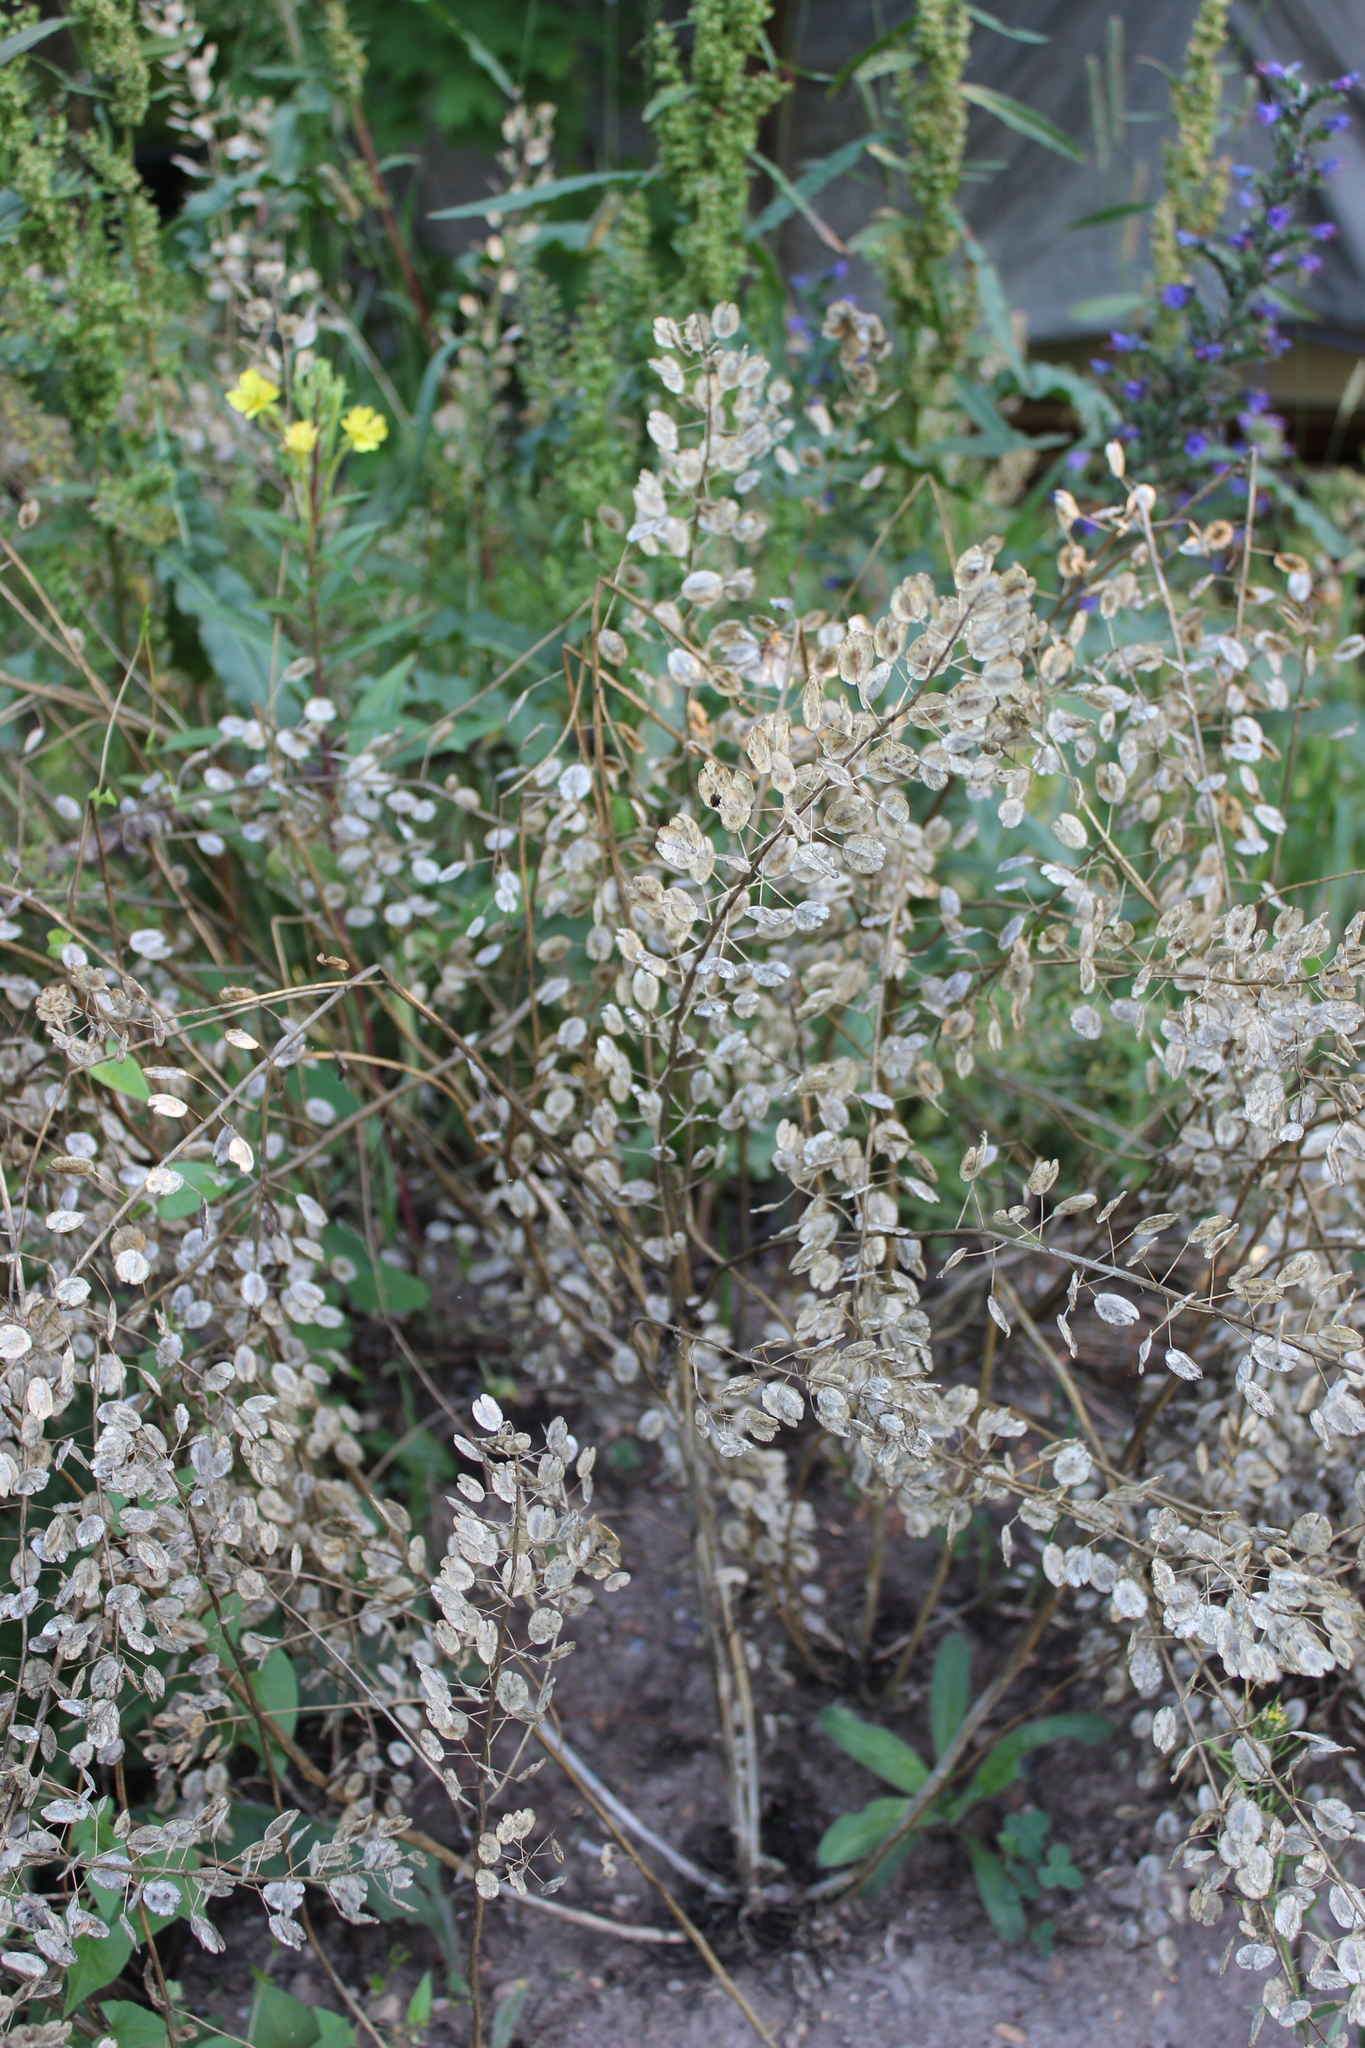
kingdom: Plantae
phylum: Tracheophyta
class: Magnoliopsida
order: Brassicales
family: Brassicaceae
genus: Thlaspi
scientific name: Thlaspi arvense
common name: Field pennycress
